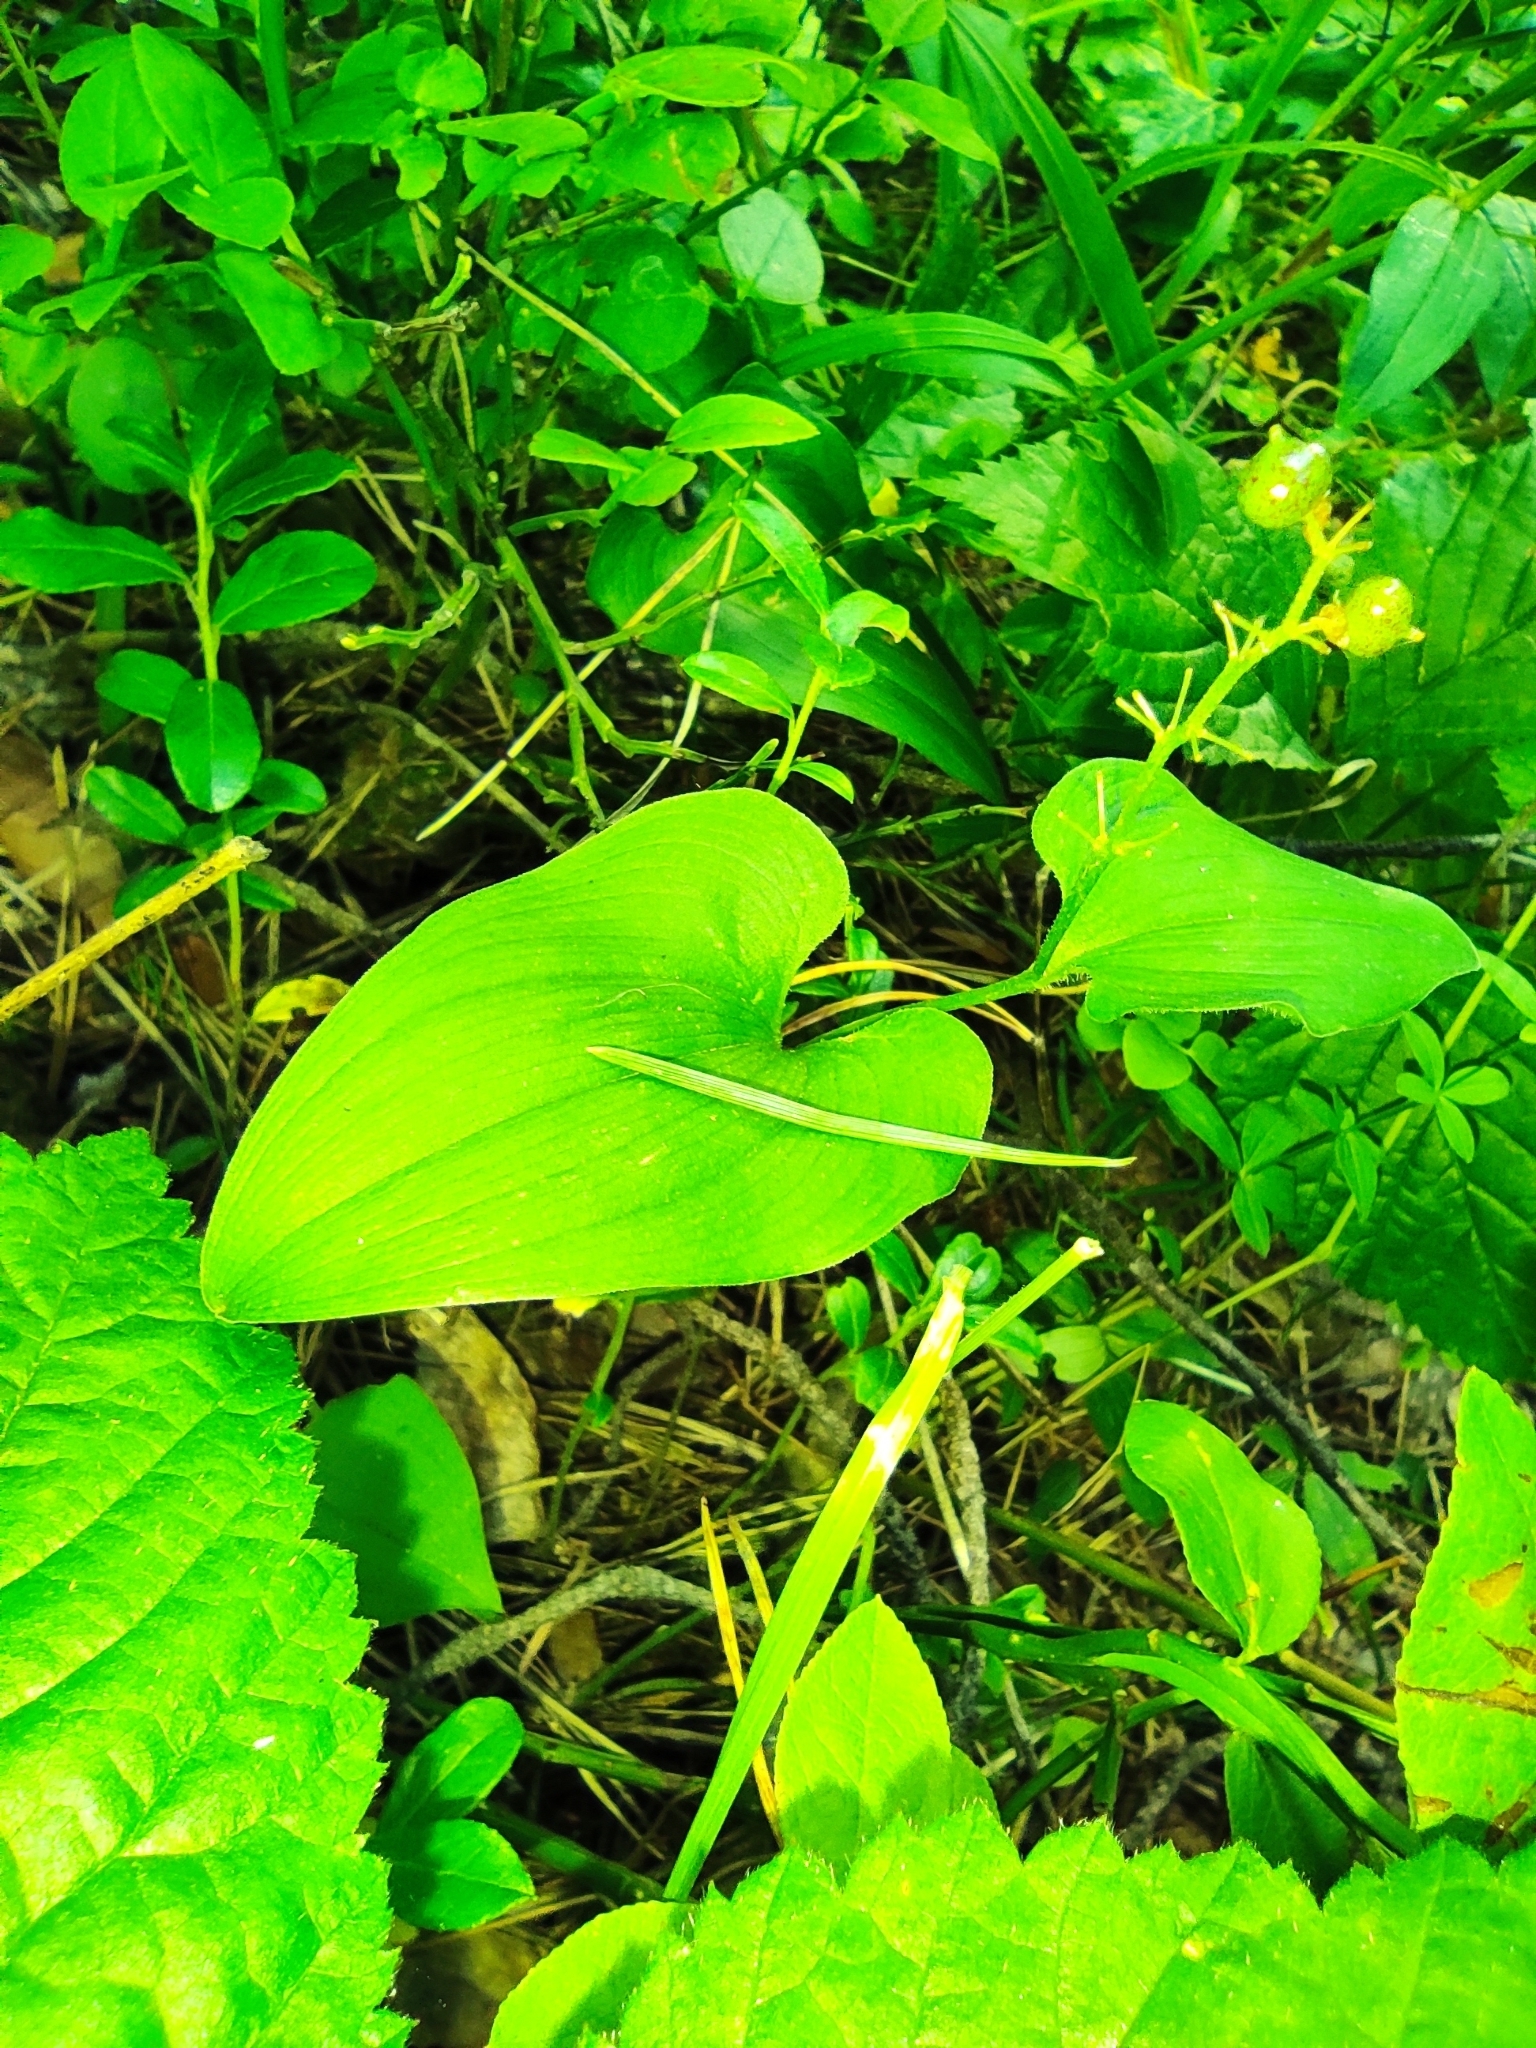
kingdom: Plantae
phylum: Tracheophyta
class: Liliopsida
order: Asparagales
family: Asparagaceae
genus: Maianthemum
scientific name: Maianthemum bifolium
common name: May lily
